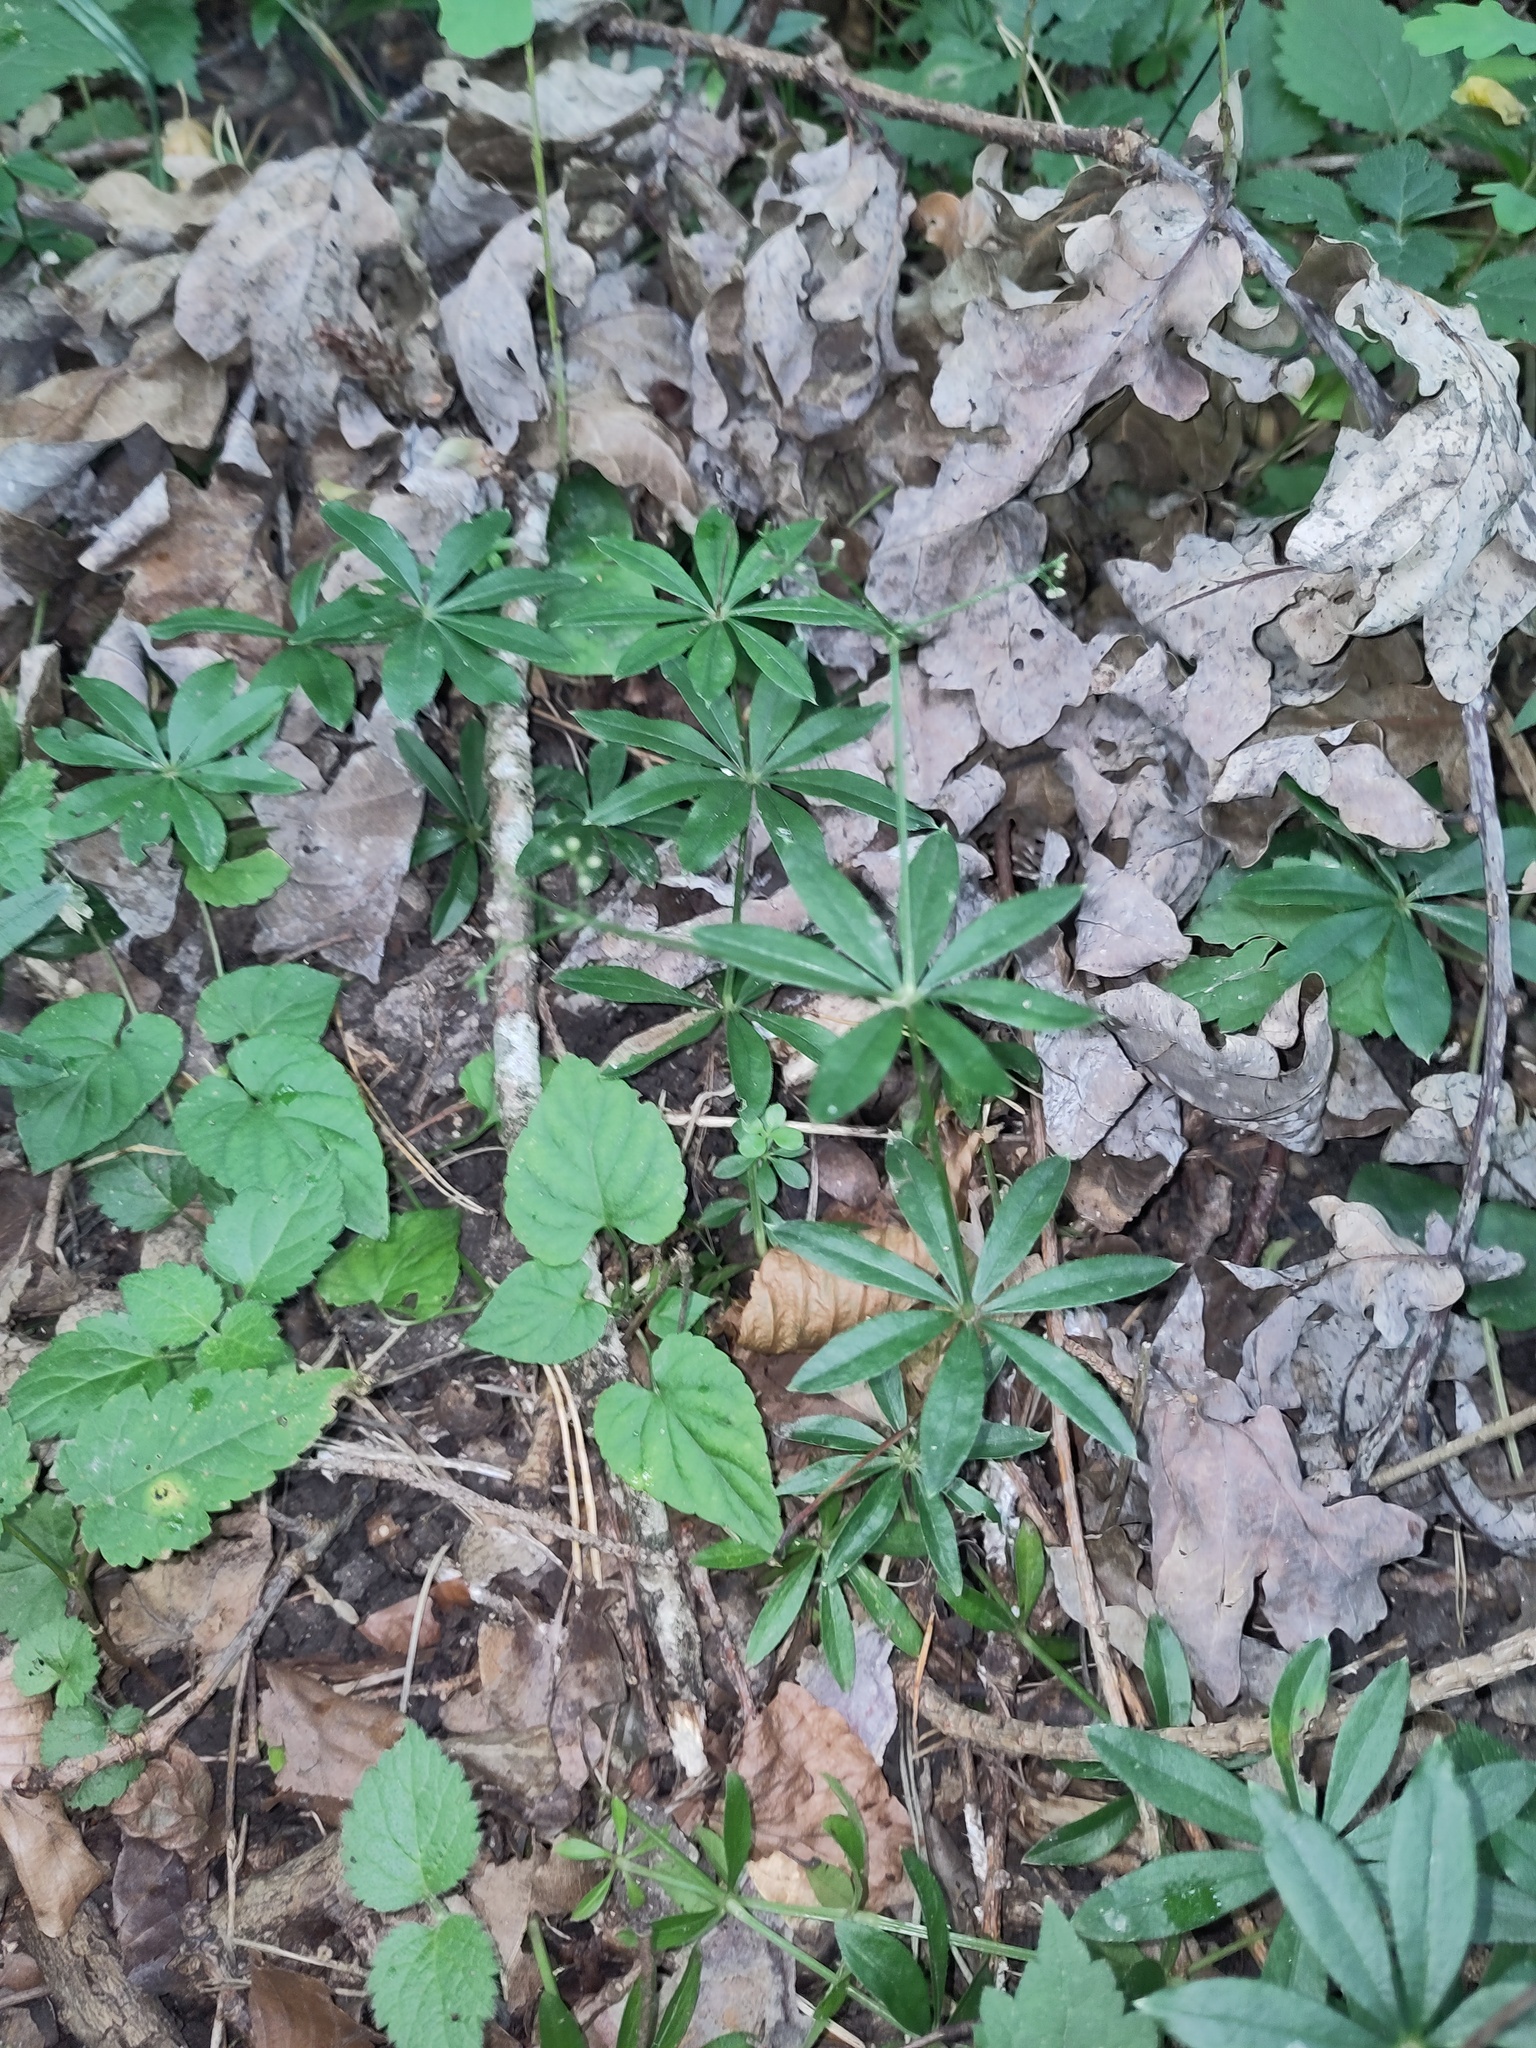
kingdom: Plantae
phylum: Tracheophyta
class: Magnoliopsida
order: Gentianales
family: Rubiaceae
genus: Galium
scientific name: Galium odoratum
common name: Sweet woodruff
